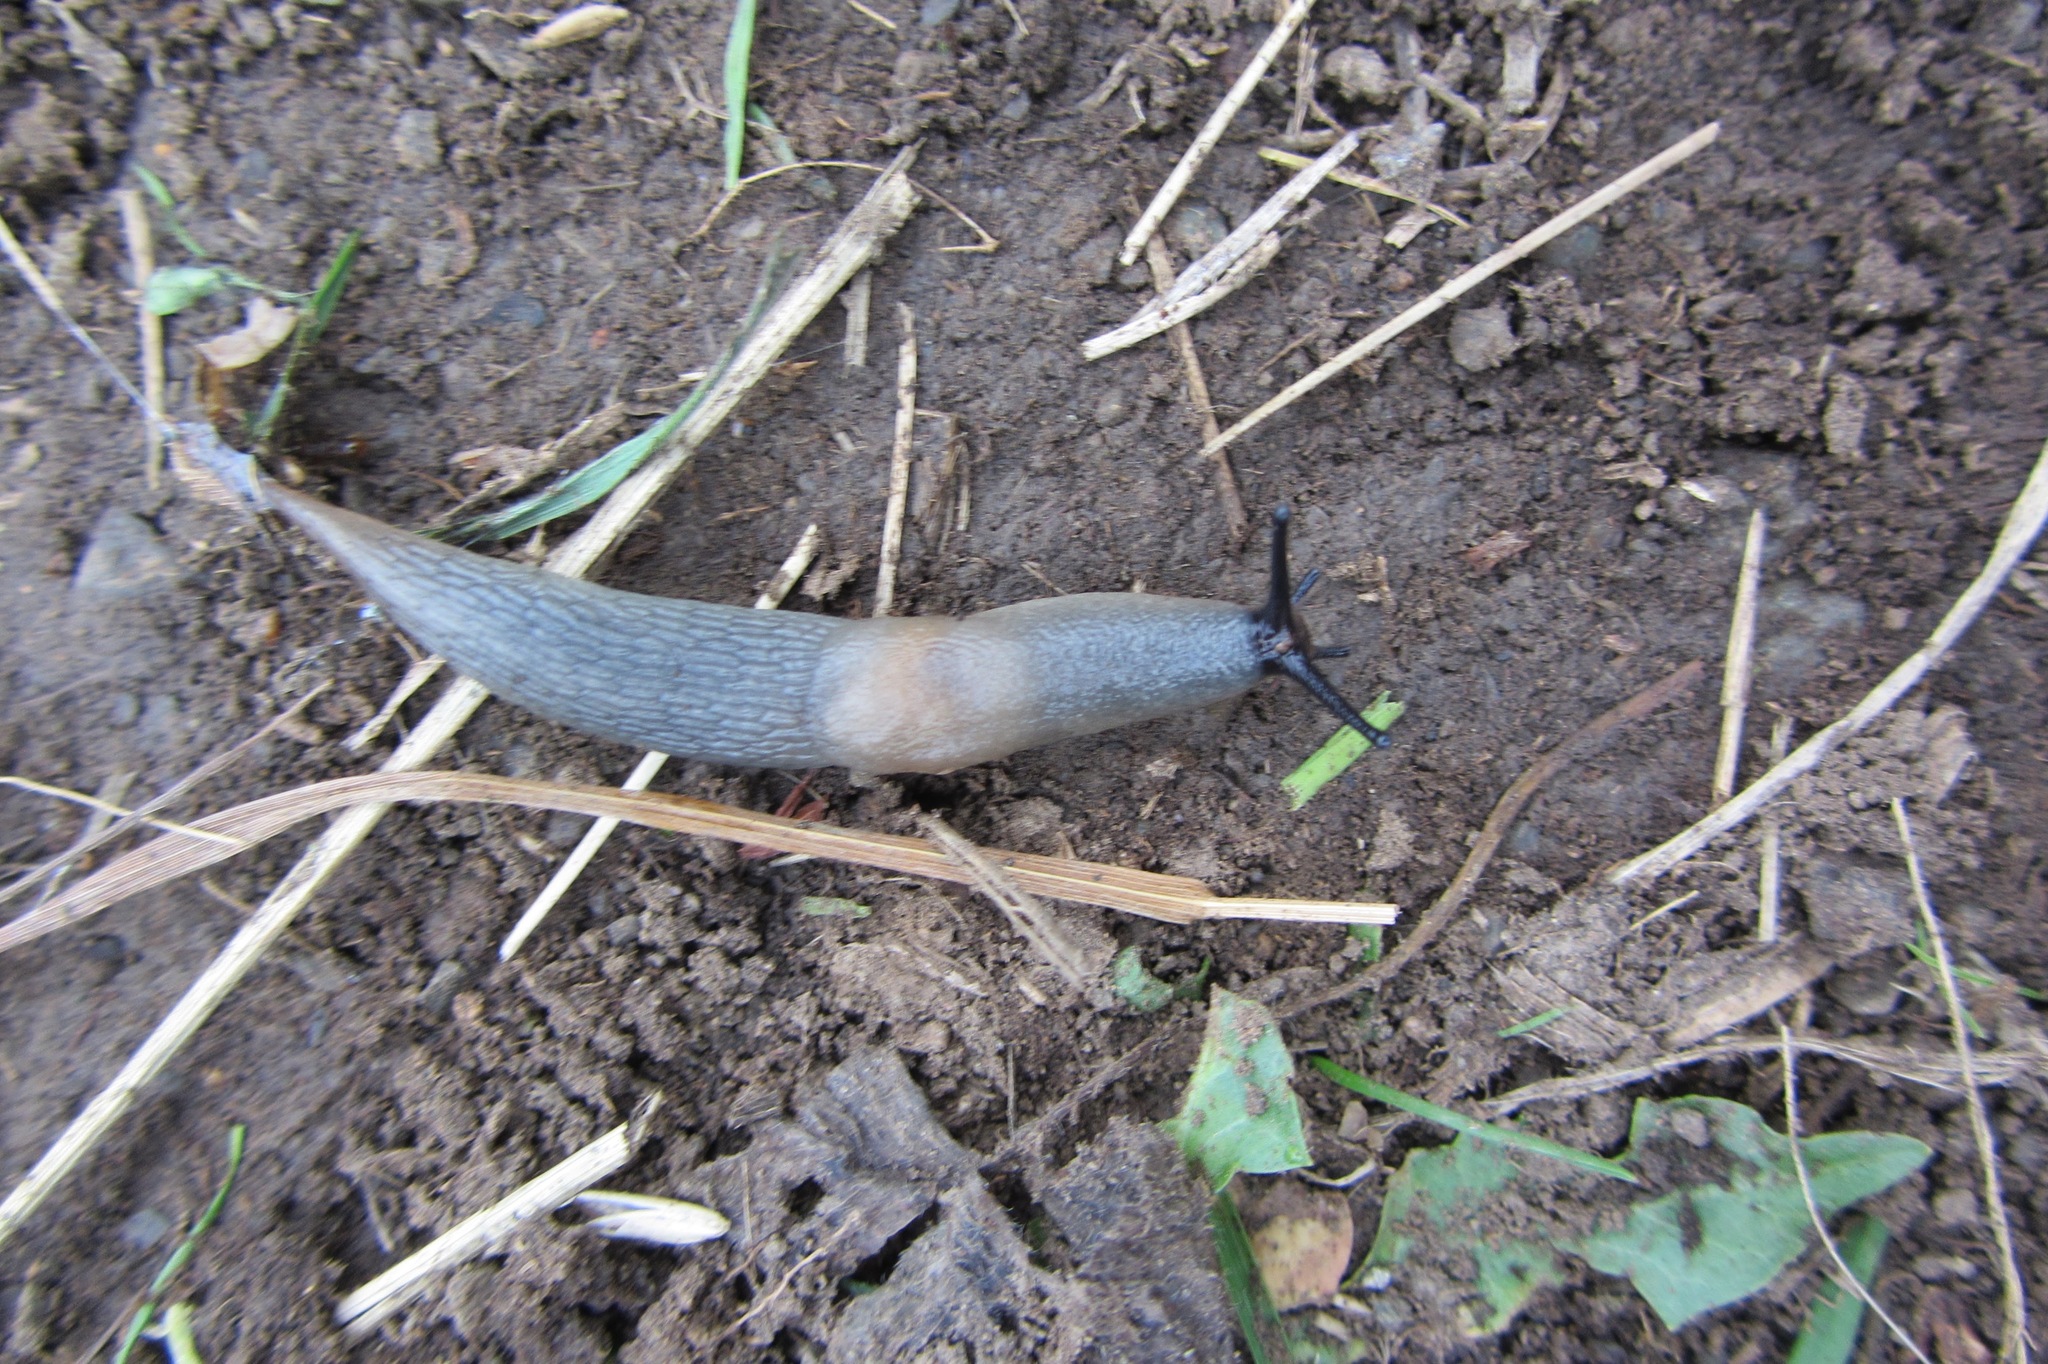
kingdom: Animalia
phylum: Mollusca
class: Gastropoda
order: Stylommatophora
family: Agriolimacidae
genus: Krynickillus
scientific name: Krynickillus melanocephalus
